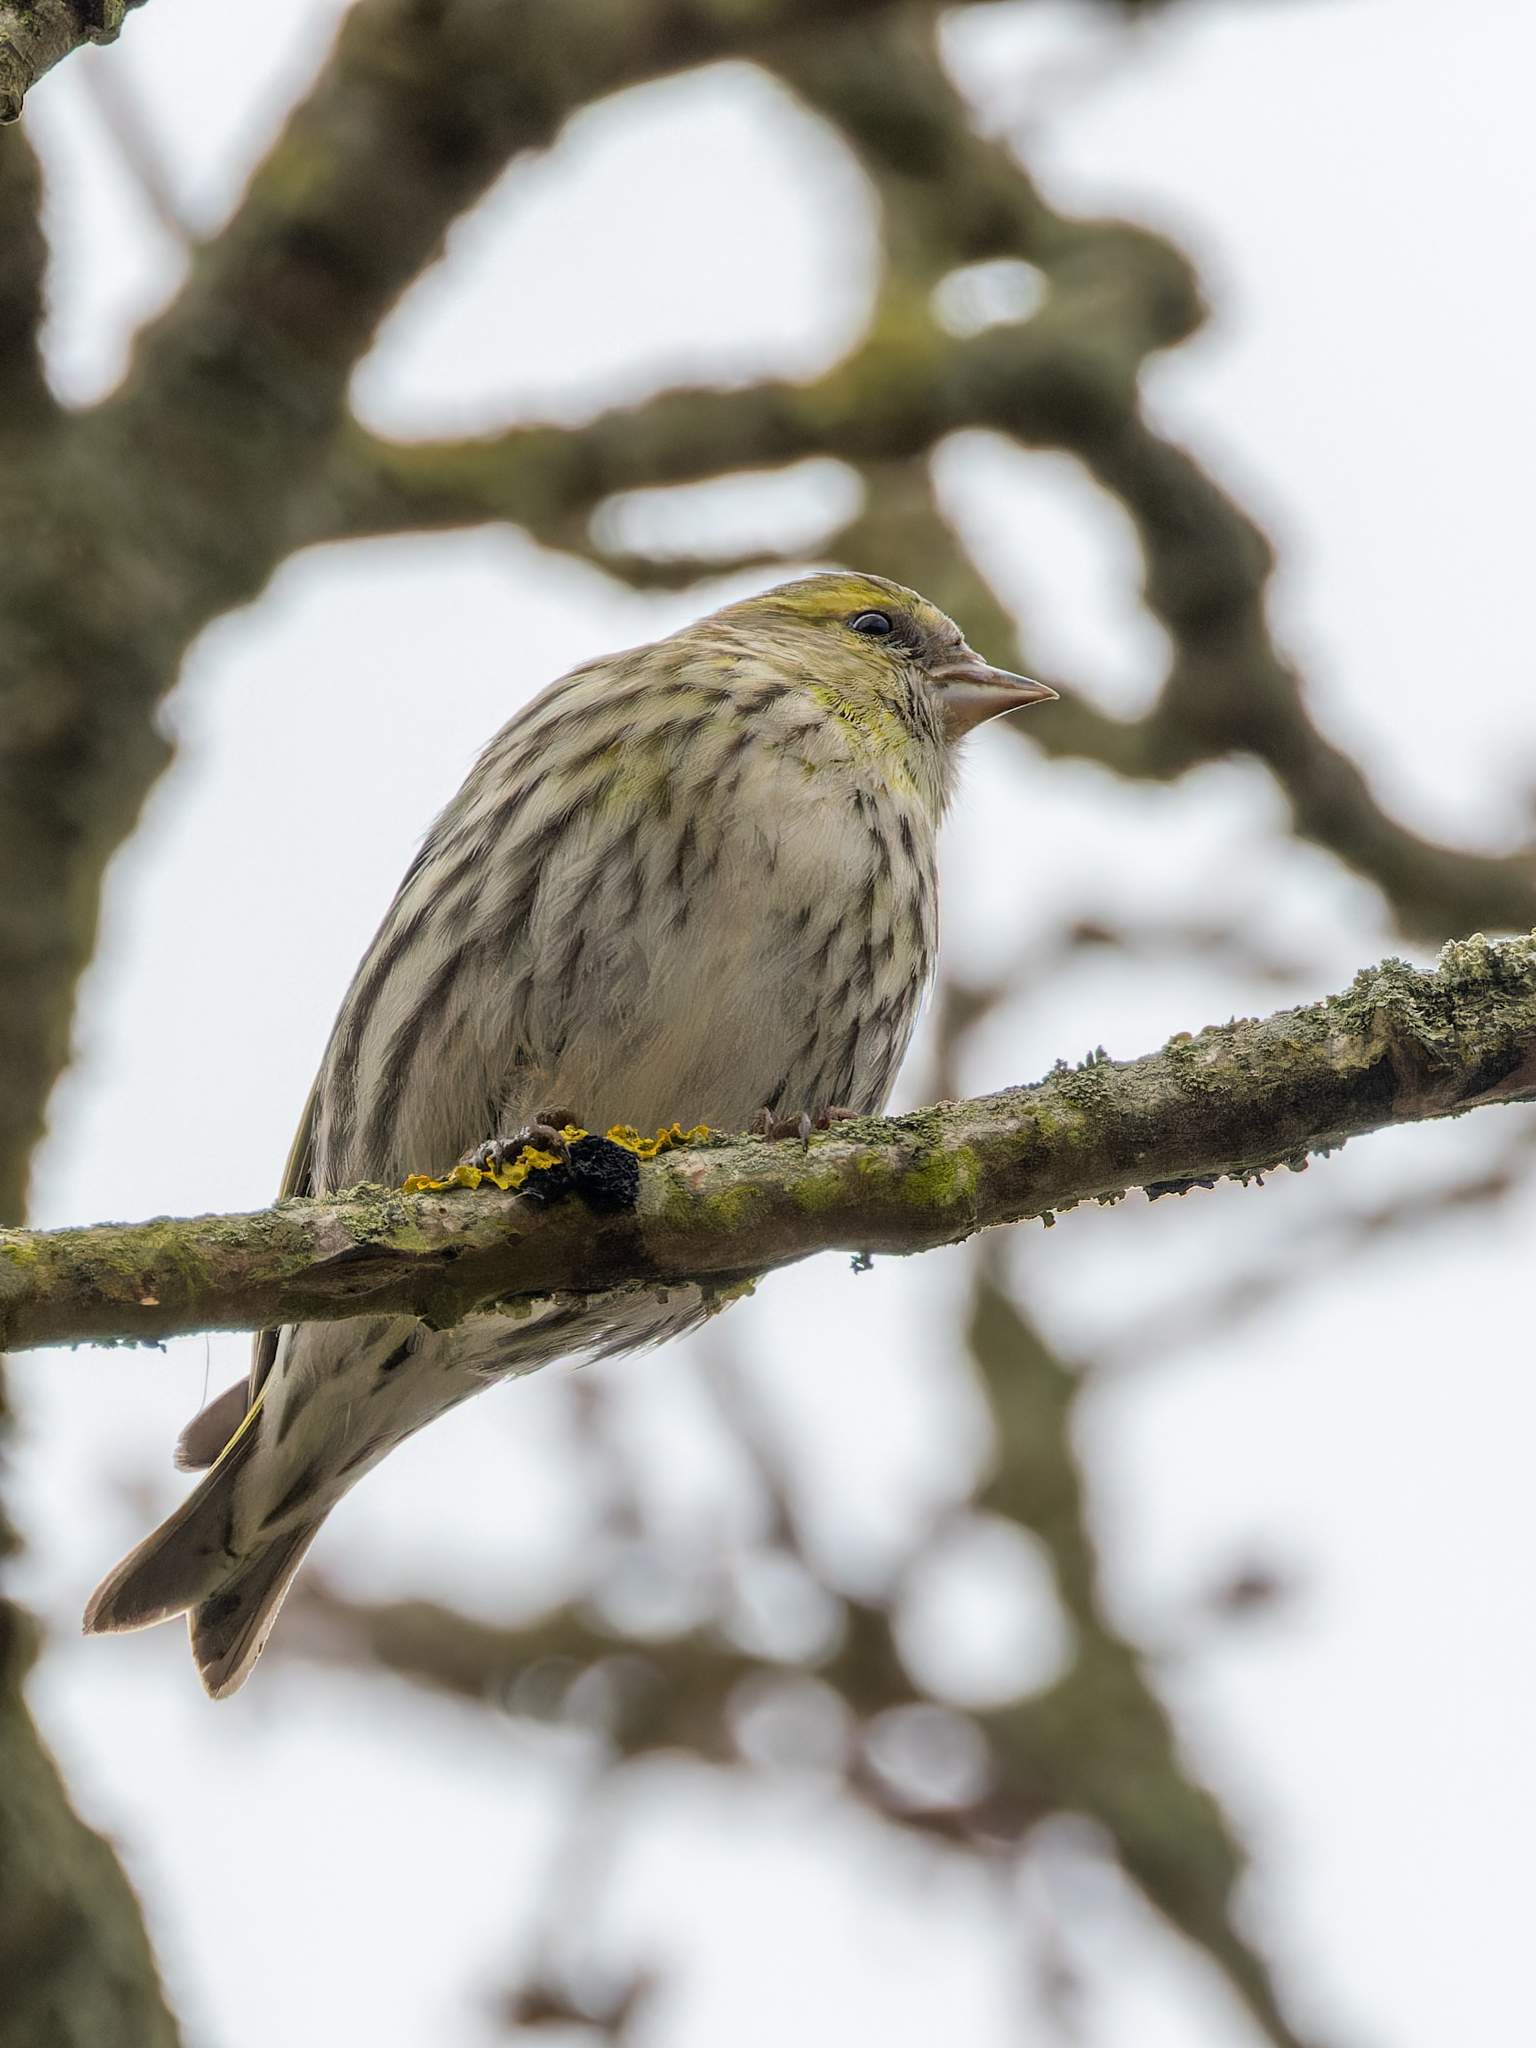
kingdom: Animalia
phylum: Chordata
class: Aves
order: Passeriformes
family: Fringillidae
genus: Spinus
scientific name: Spinus spinus
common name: Eurasian siskin
